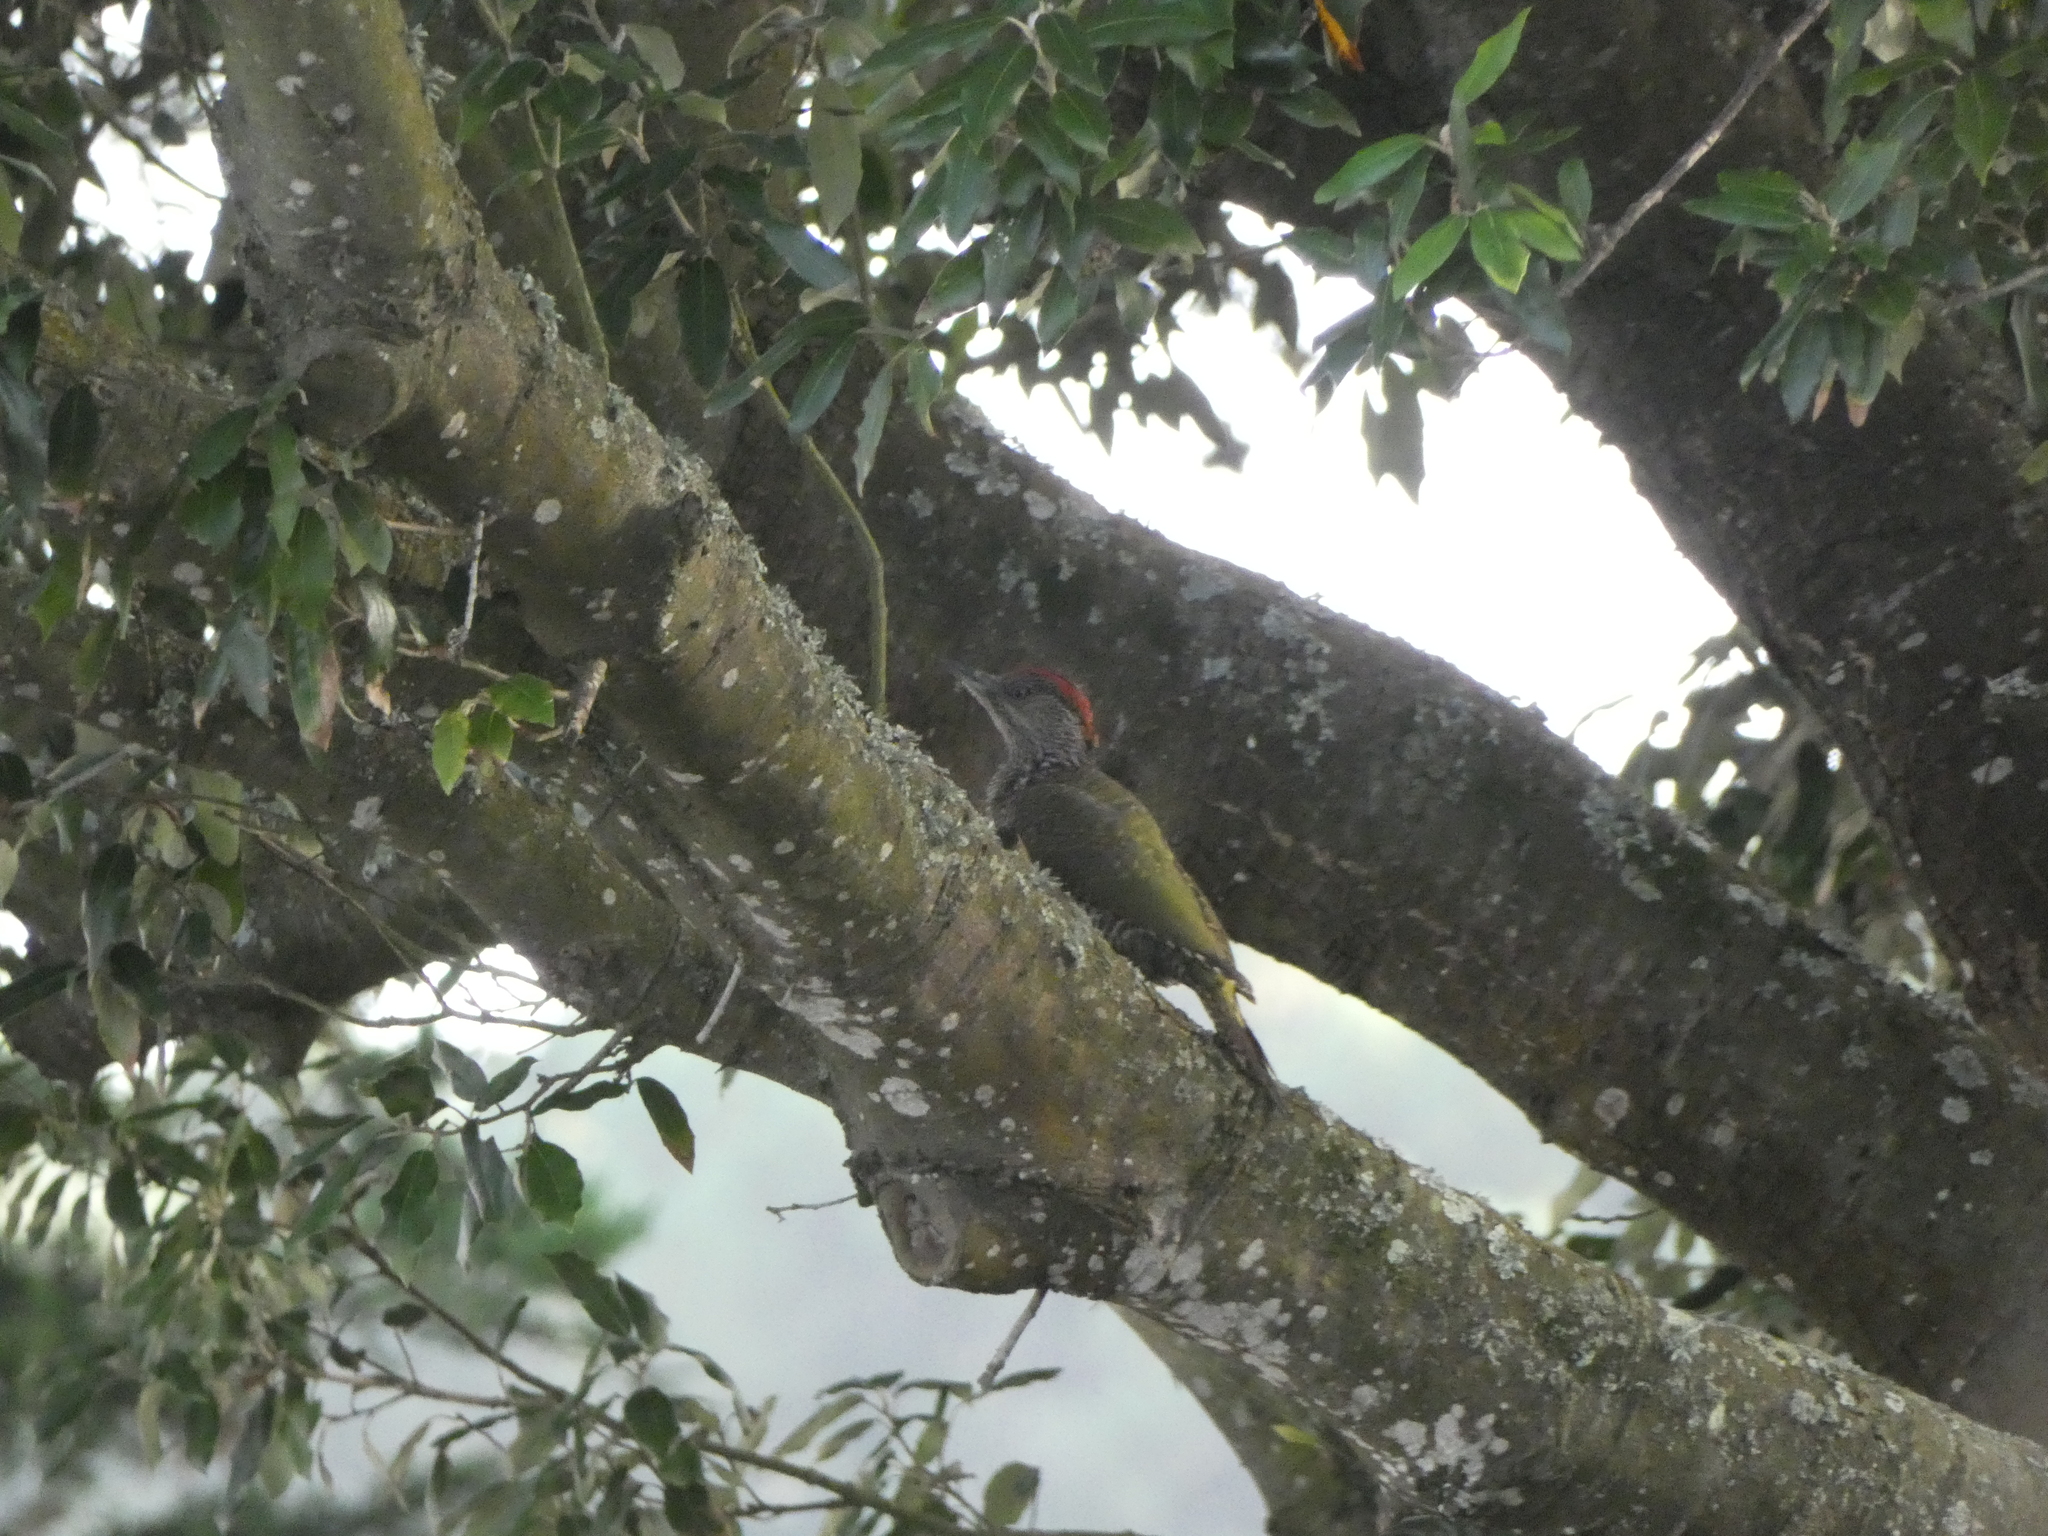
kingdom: Animalia
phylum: Chordata
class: Aves
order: Piciformes
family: Picidae
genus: Picus
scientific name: Picus viridis
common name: European green woodpecker
